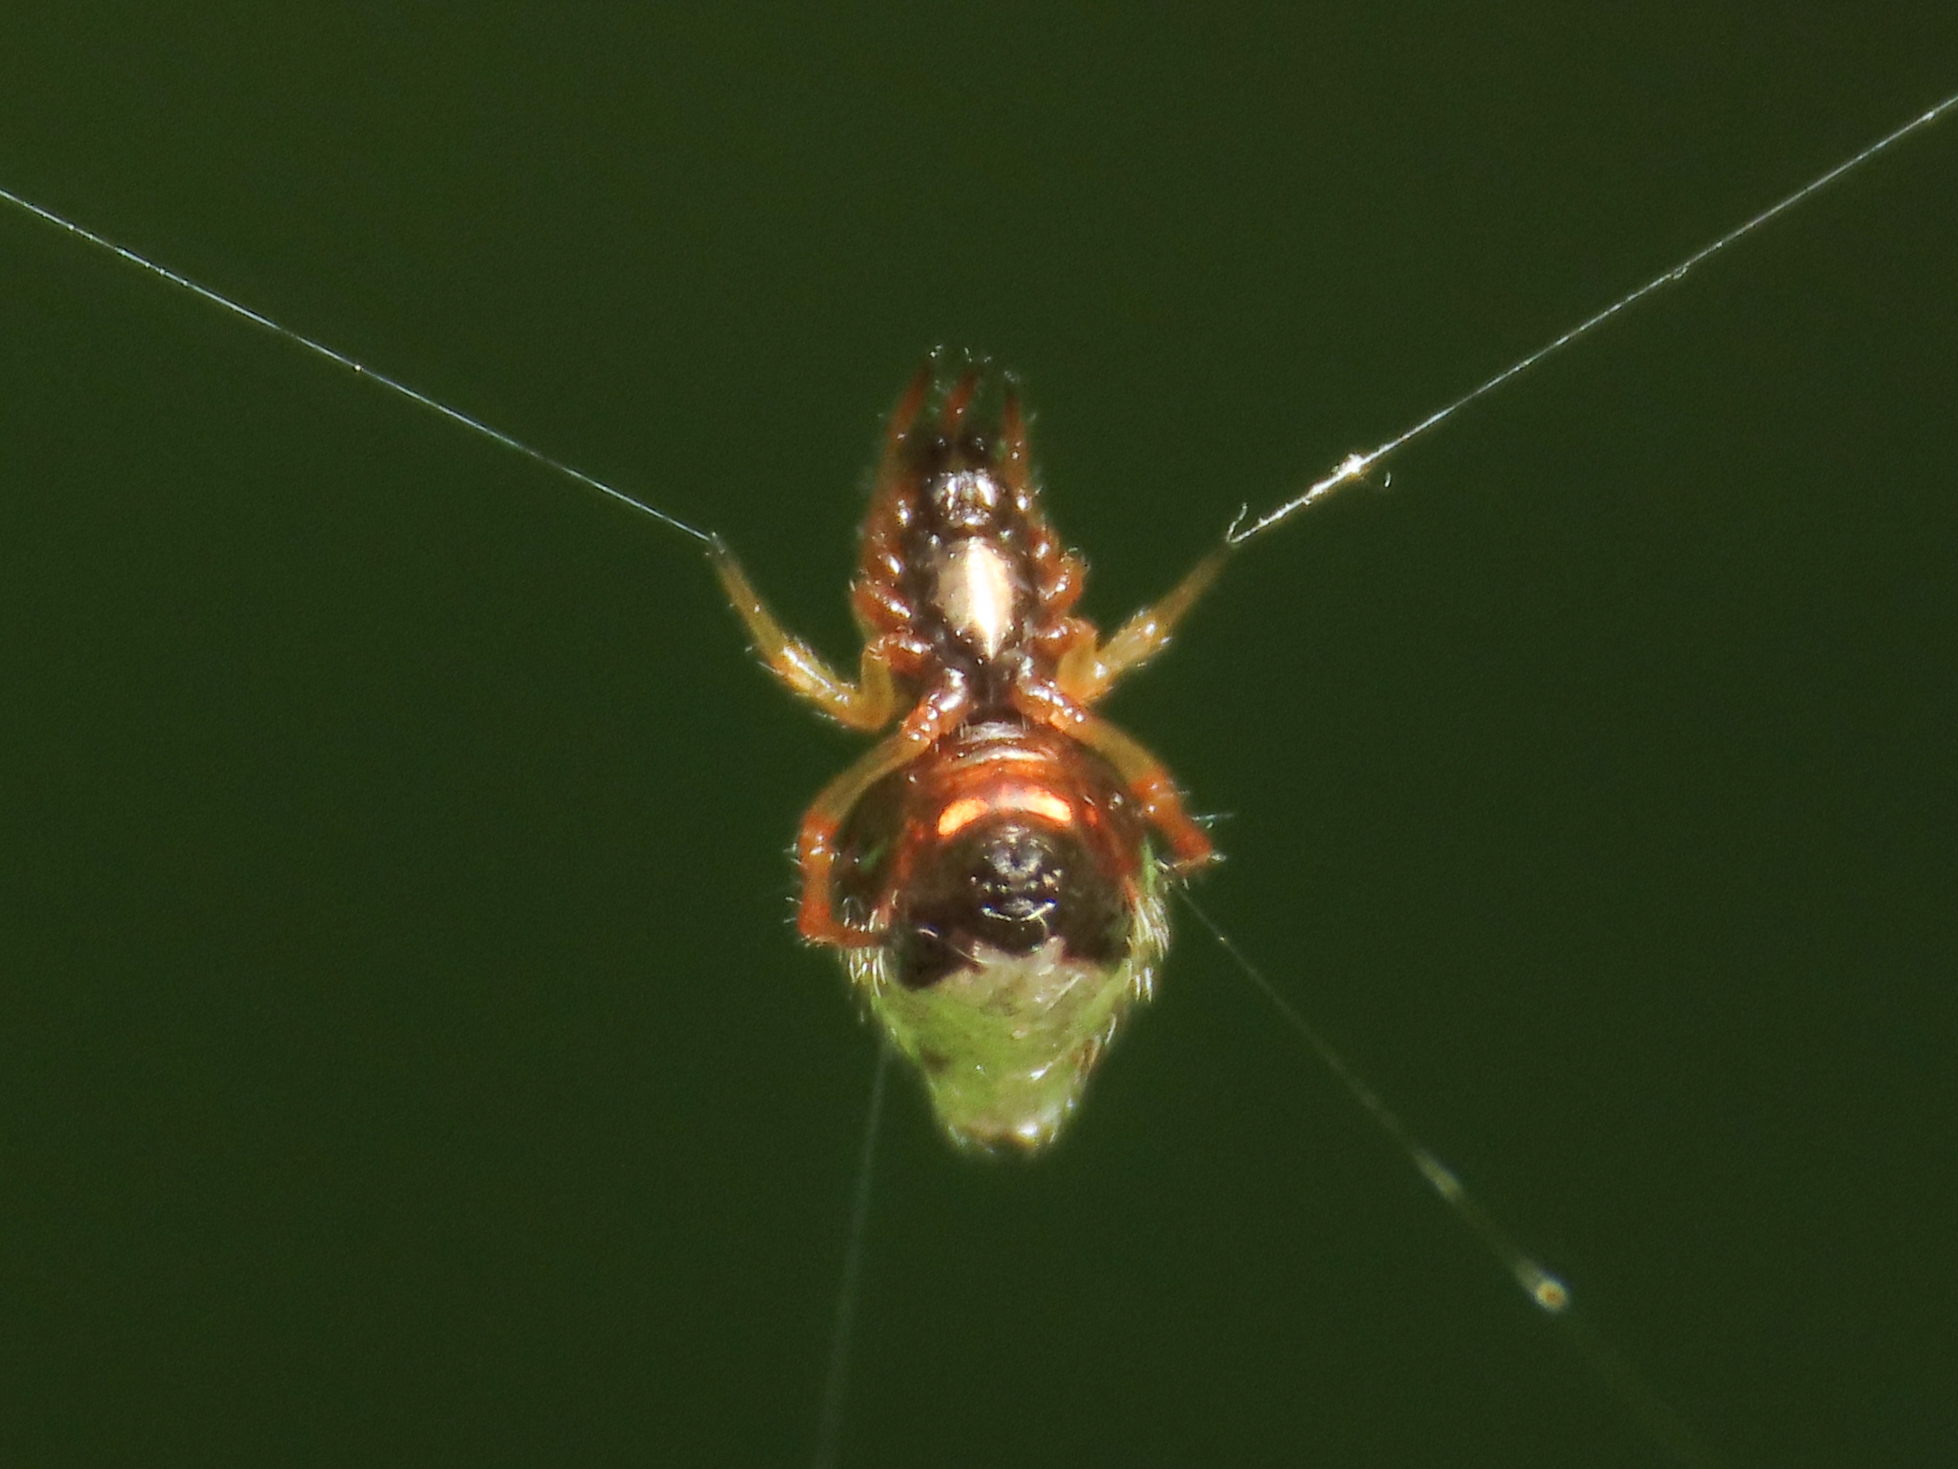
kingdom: Animalia
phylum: Arthropoda
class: Arachnida
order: Araneae
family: Theridiidae
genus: Argyrodes
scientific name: Argyrodes argyrodes
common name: Dewdrop spider
